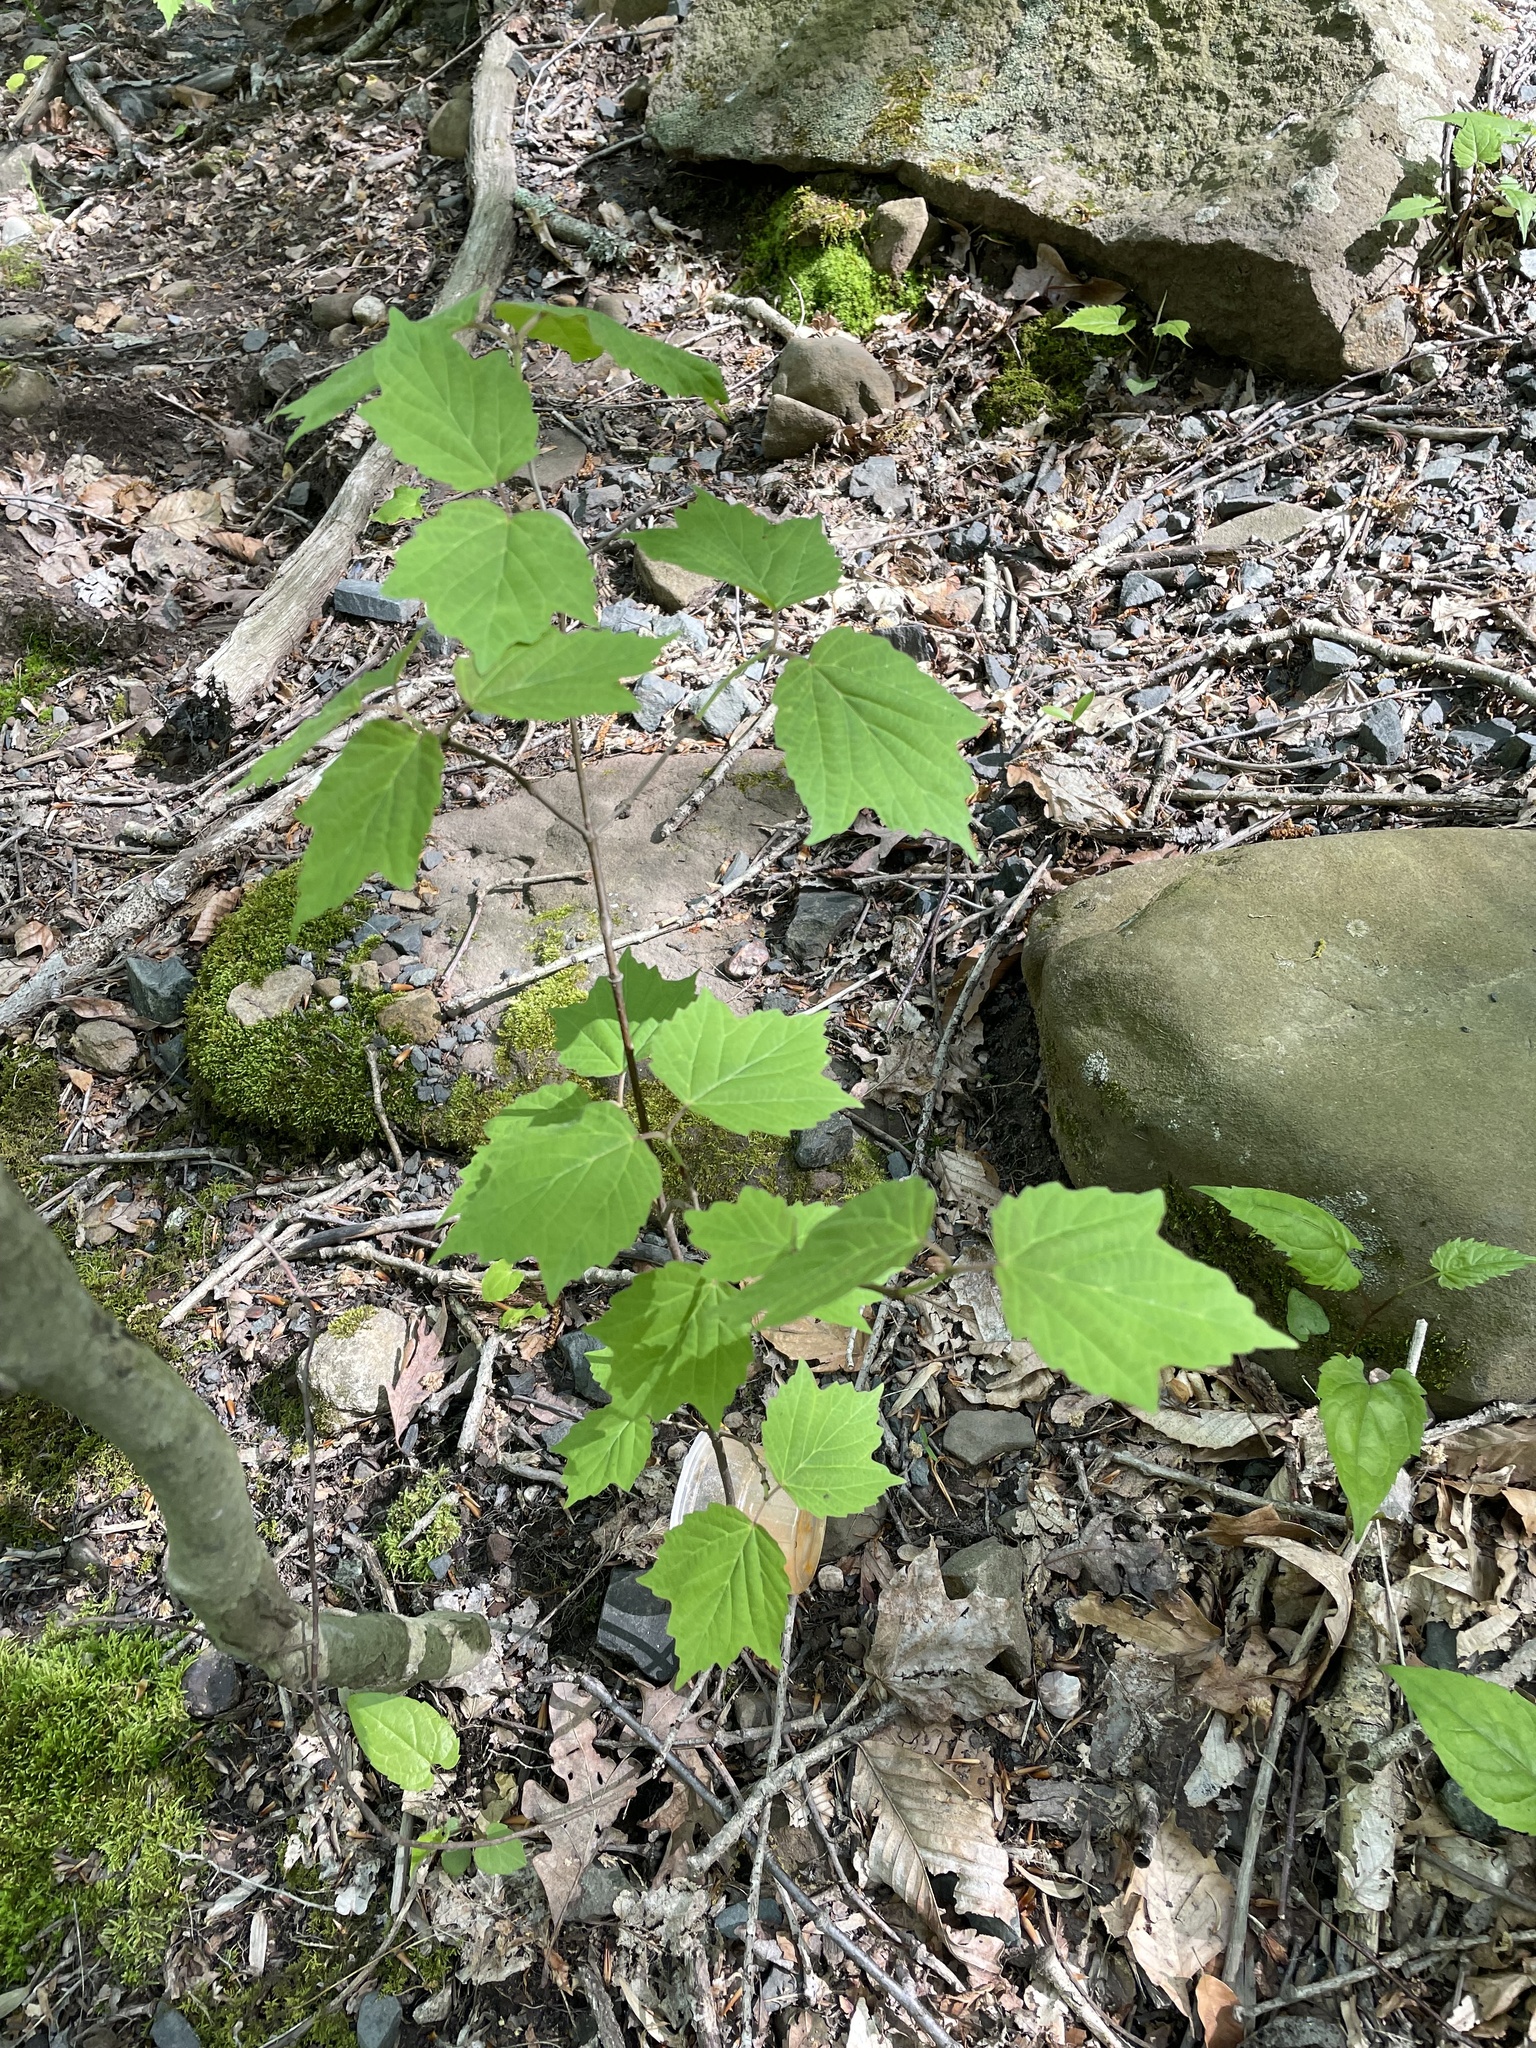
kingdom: Plantae
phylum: Tracheophyta
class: Magnoliopsida
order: Dipsacales
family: Viburnaceae
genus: Viburnum
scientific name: Viburnum acerifolium
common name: Dockmackie
